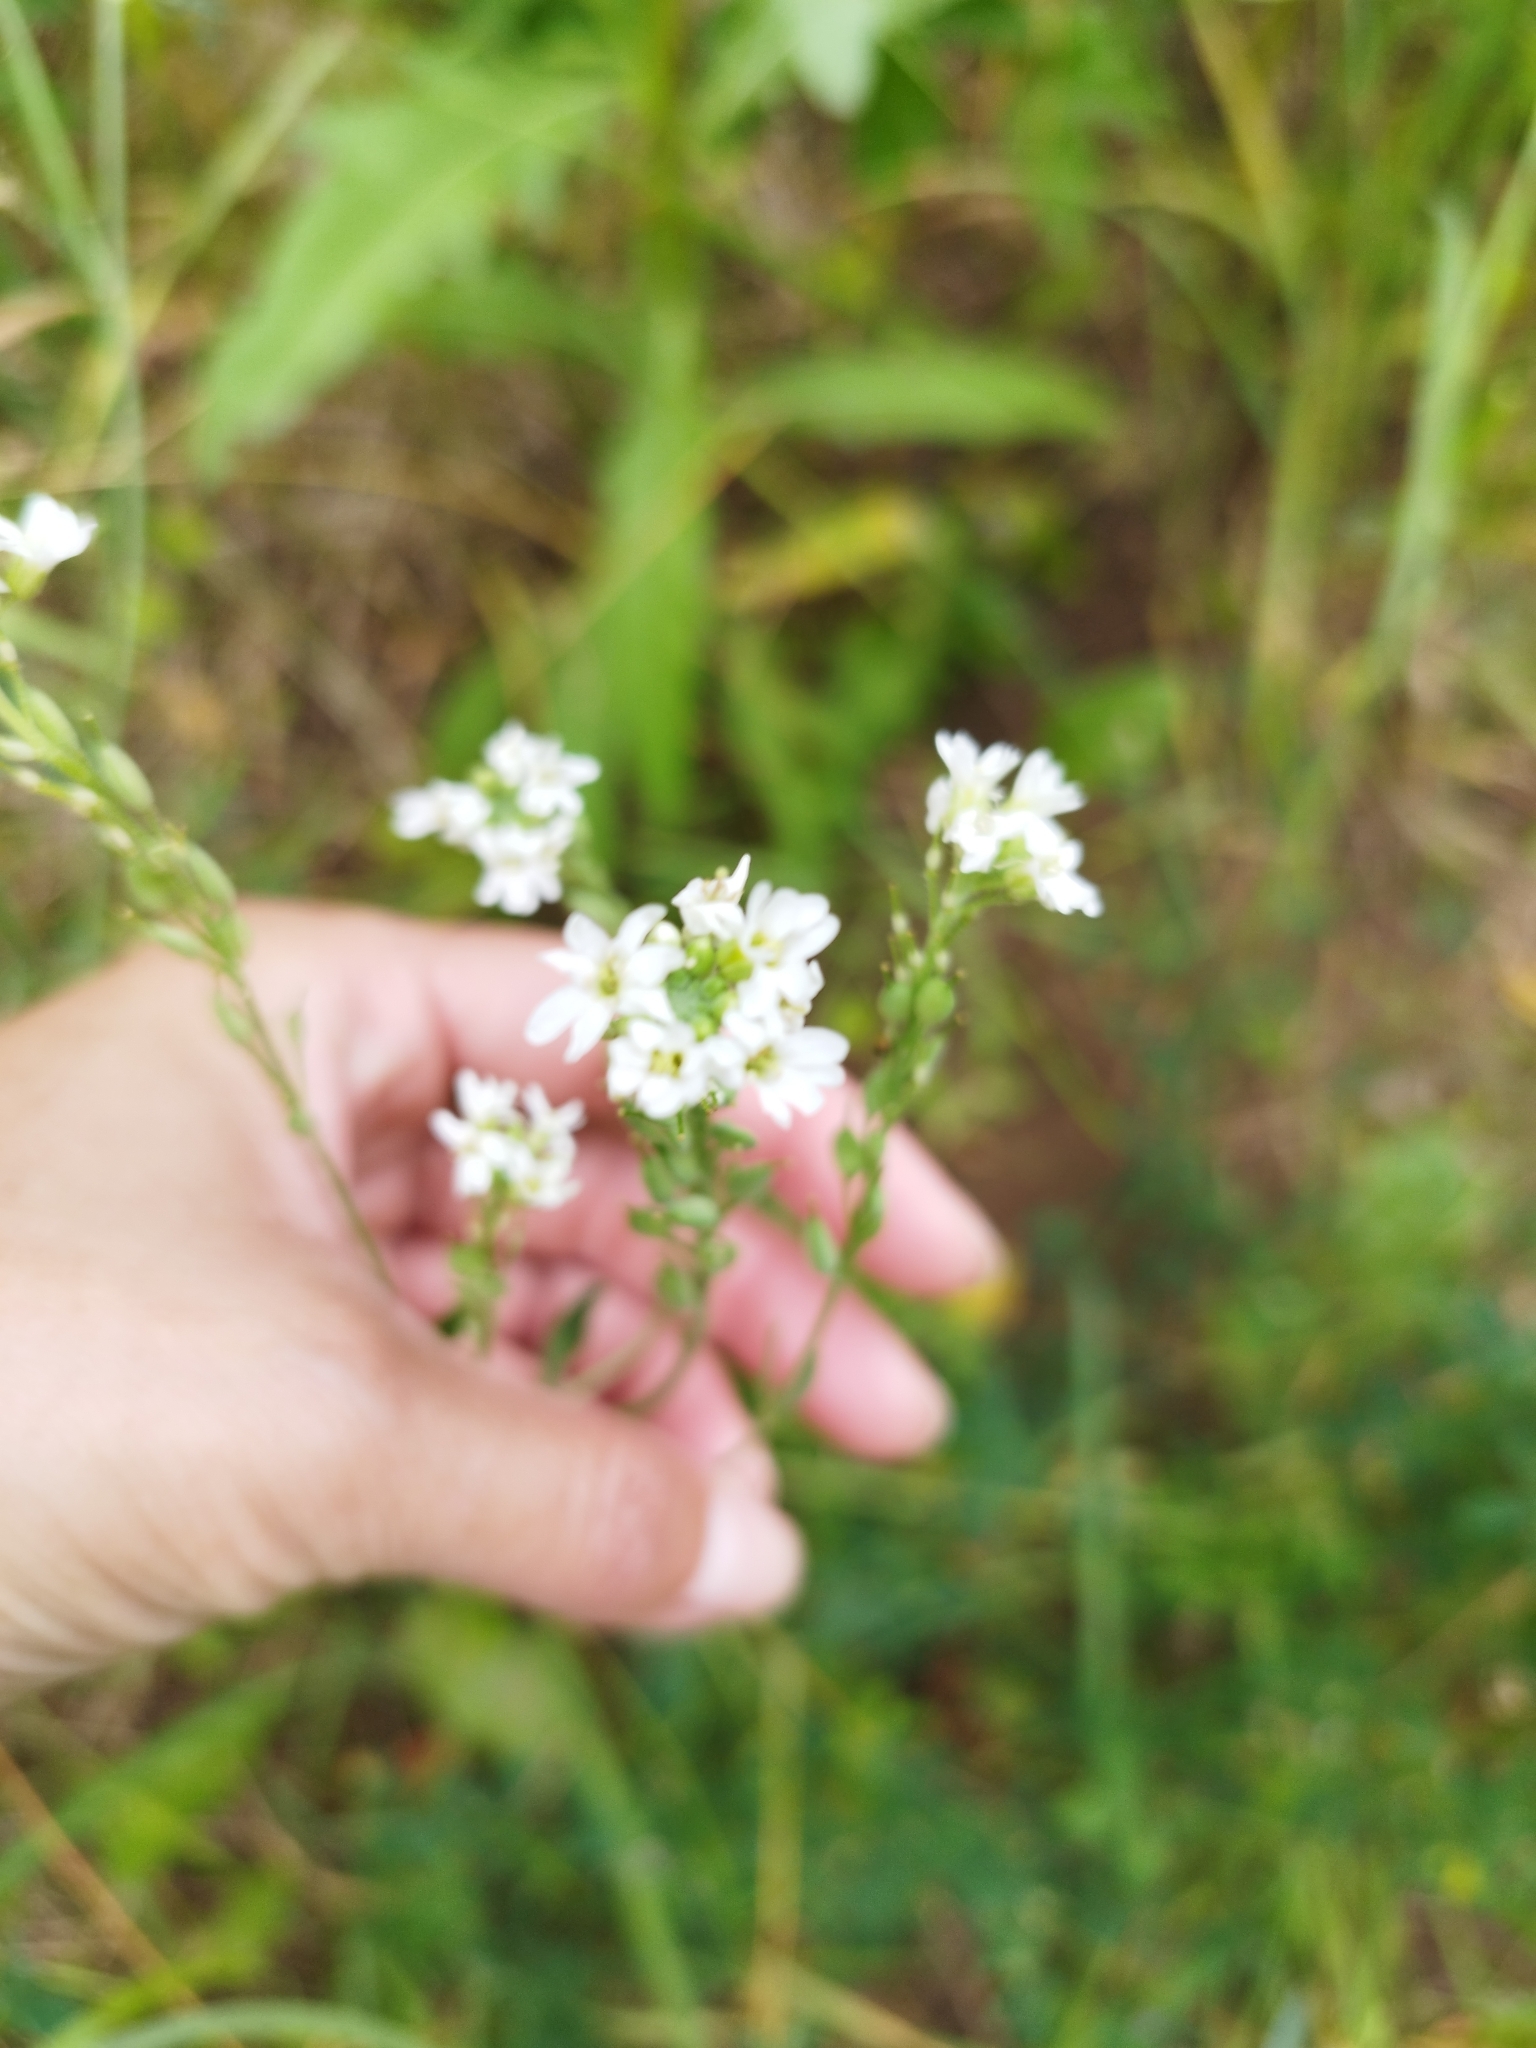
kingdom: Plantae
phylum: Tracheophyta
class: Magnoliopsida
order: Brassicales
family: Brassicaceae
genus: Berteroa
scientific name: Berteroa incana
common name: Hoary alison
